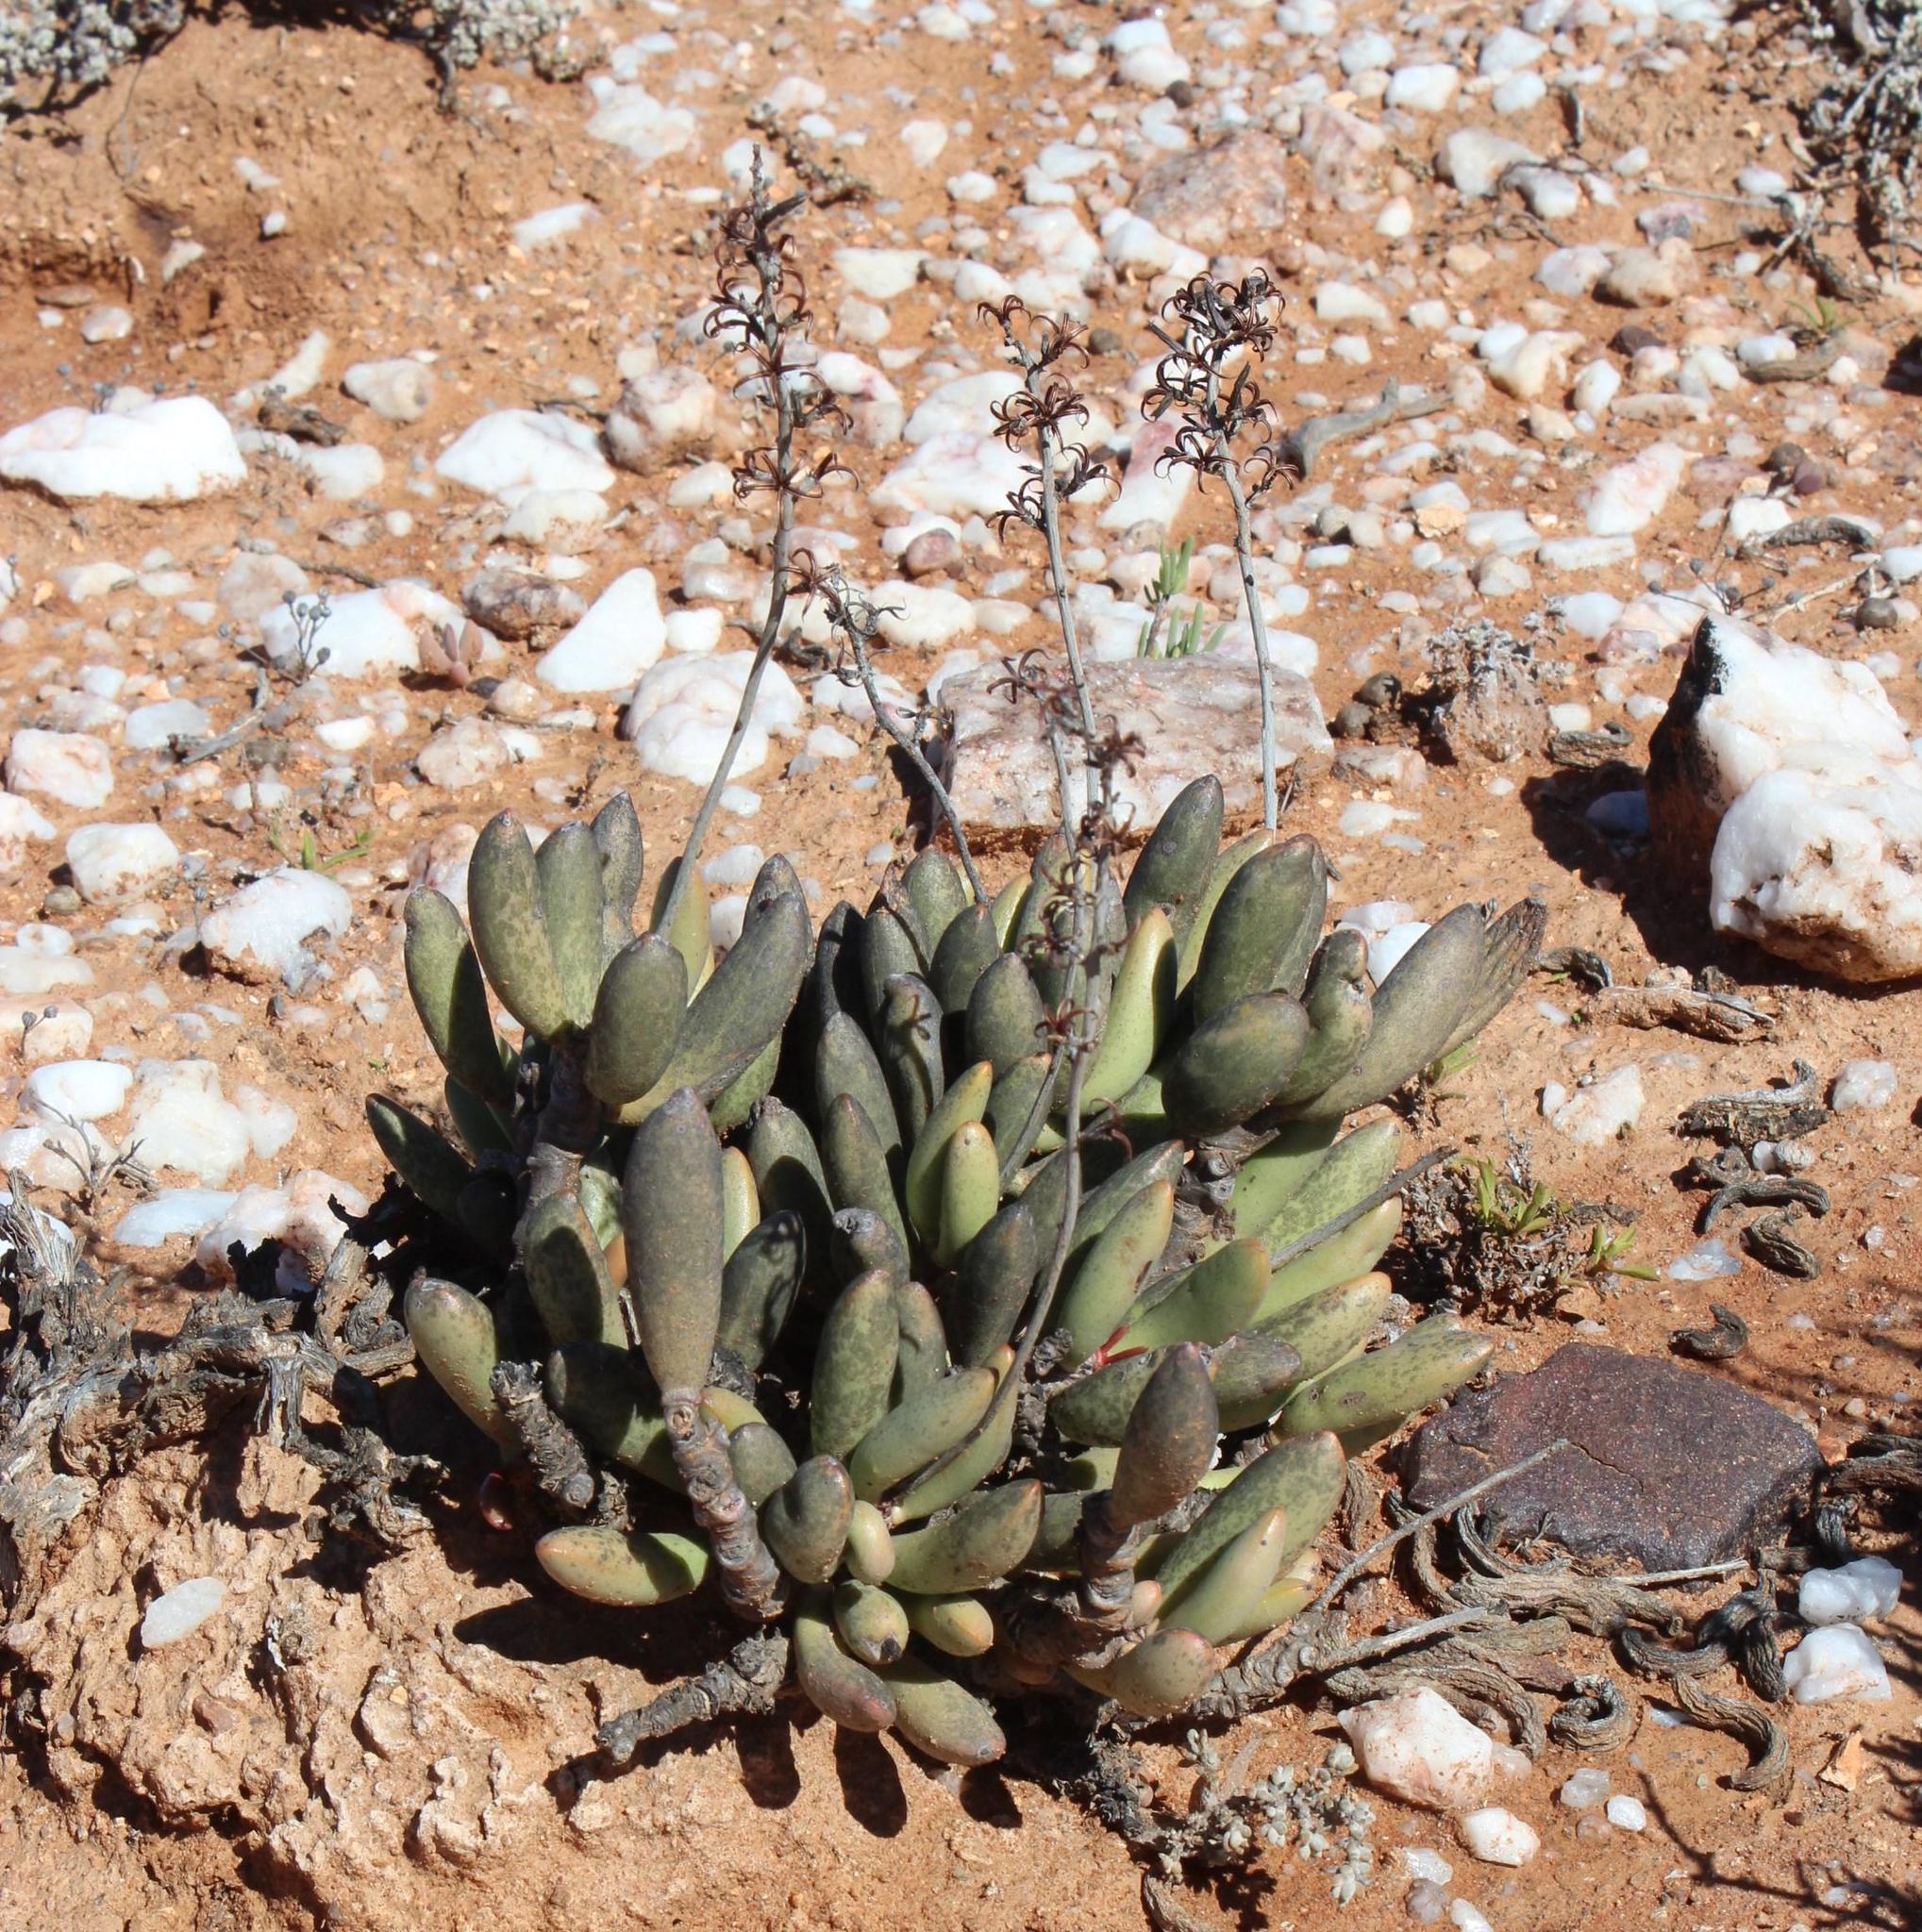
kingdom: Plantae
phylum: Tracheophyta
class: Magnoliopsida
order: Saxifragales
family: Crassulaceae
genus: Adromischus
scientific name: Adromischus filicaulis
